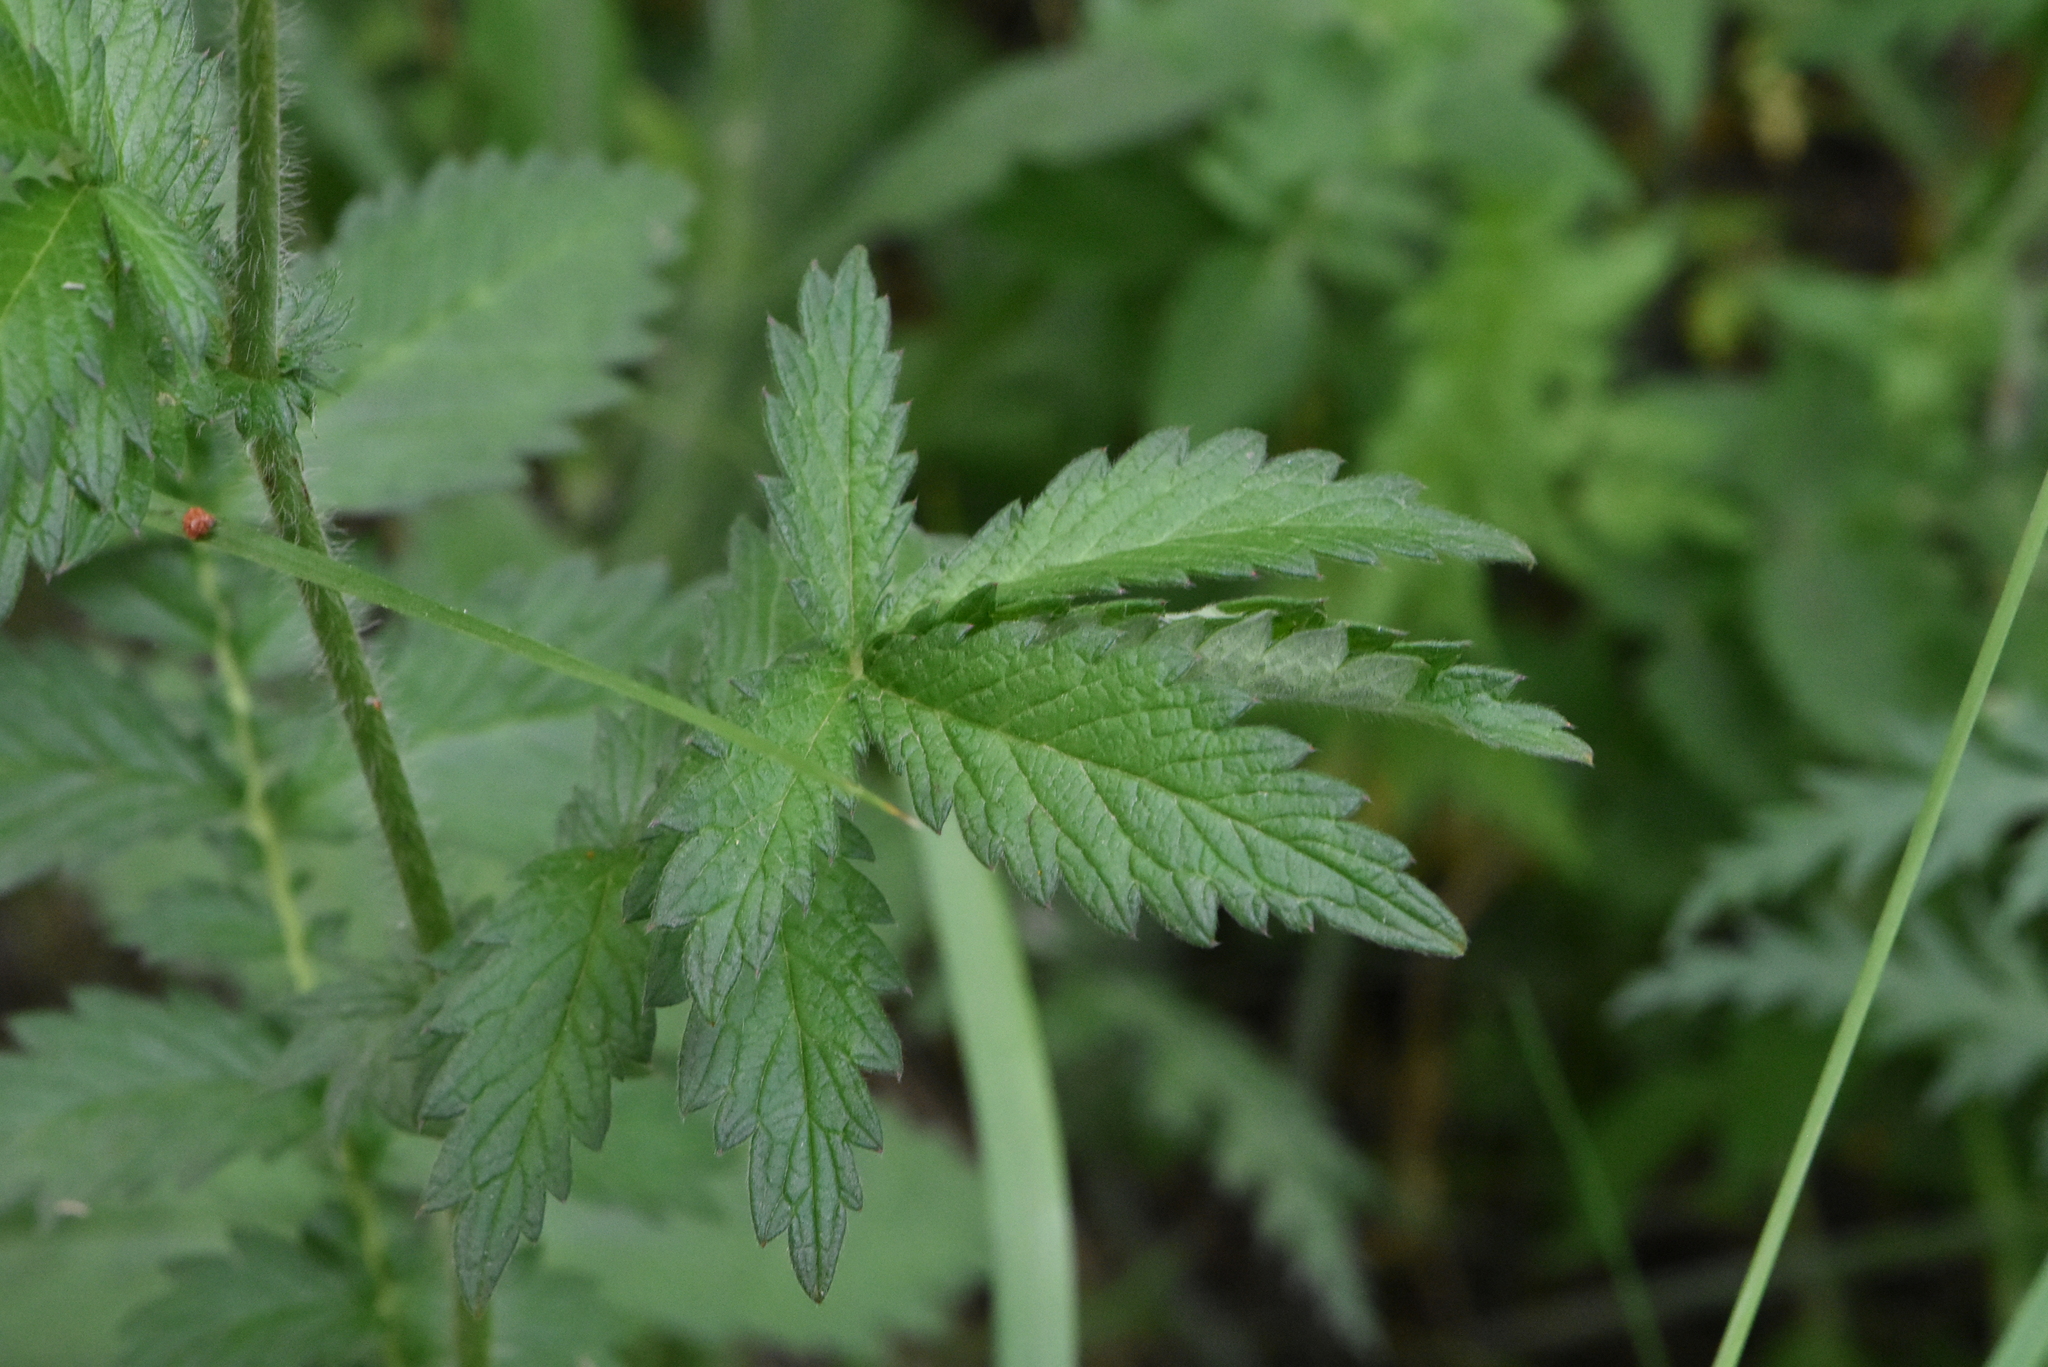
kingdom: Plantae
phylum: Tracheophyta
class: Magnoliopsida
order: Rosales
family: Rosaceae
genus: Agrimonia
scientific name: Agrimonia eupatoria
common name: Agrimony
